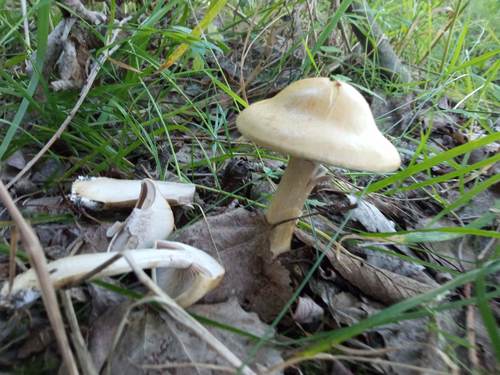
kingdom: Fungi
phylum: Basidiomycota
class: Agaricomycetes
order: Agaricales
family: Cortinariaceae
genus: Cortinarius
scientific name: Cortinarius
